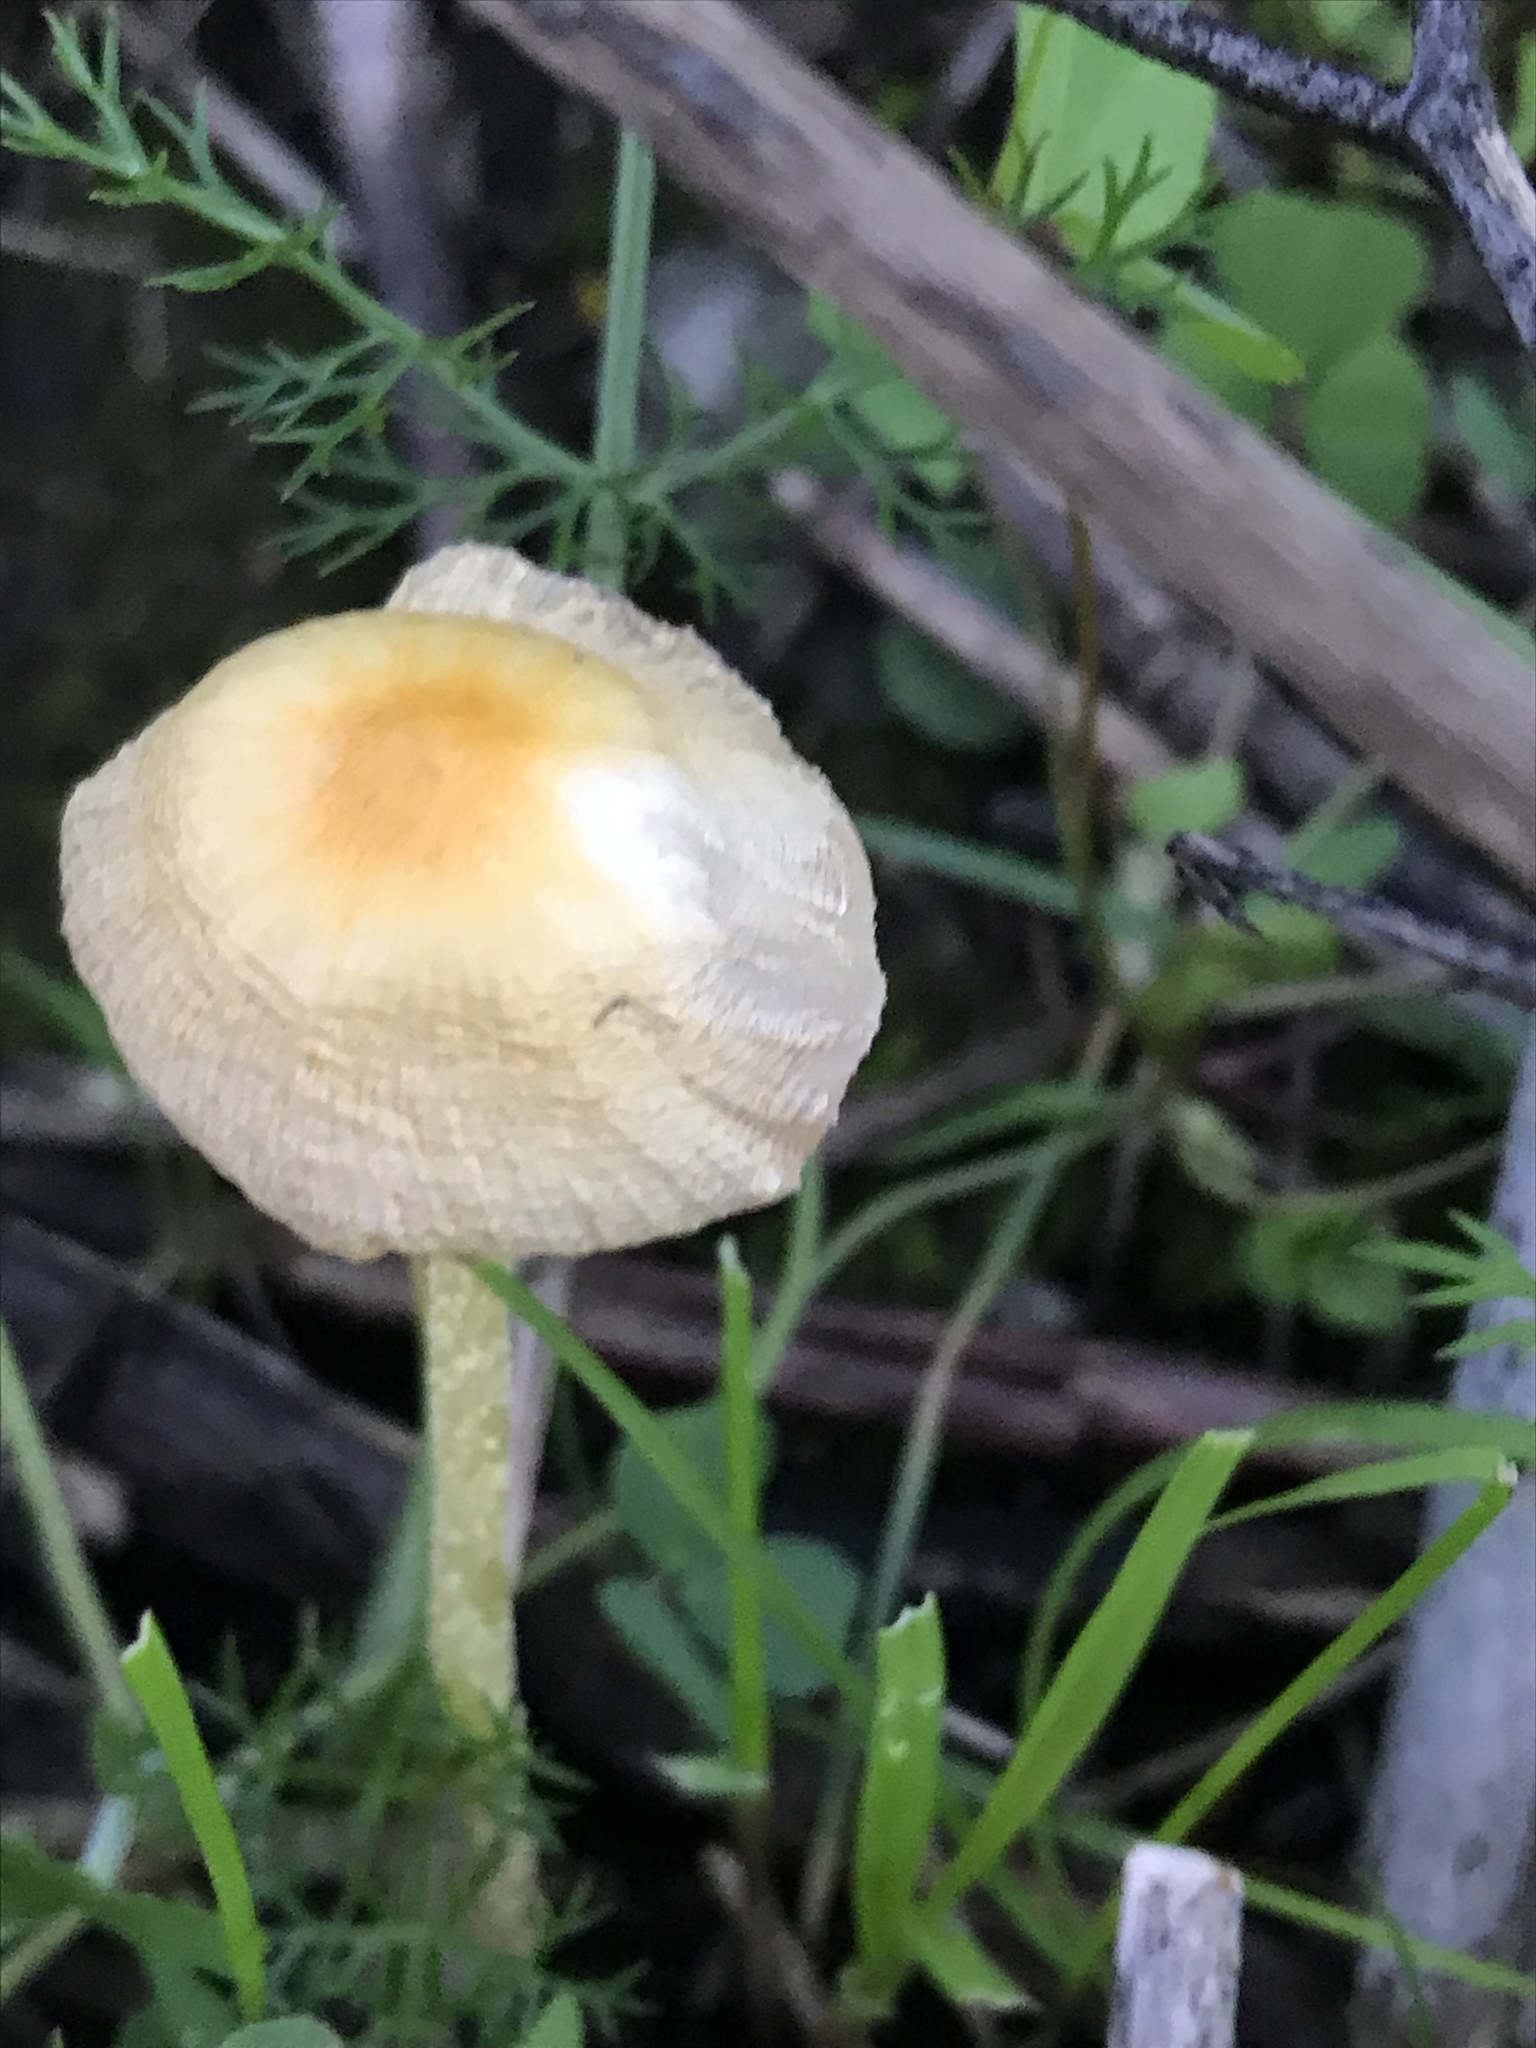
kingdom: Fungi
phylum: Basidiomycota
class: Agaricomycetes
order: Agaricales
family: Bolbitiaceae
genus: Bolbitius
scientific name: Bolbitius titubans
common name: Yellow fieldcap
